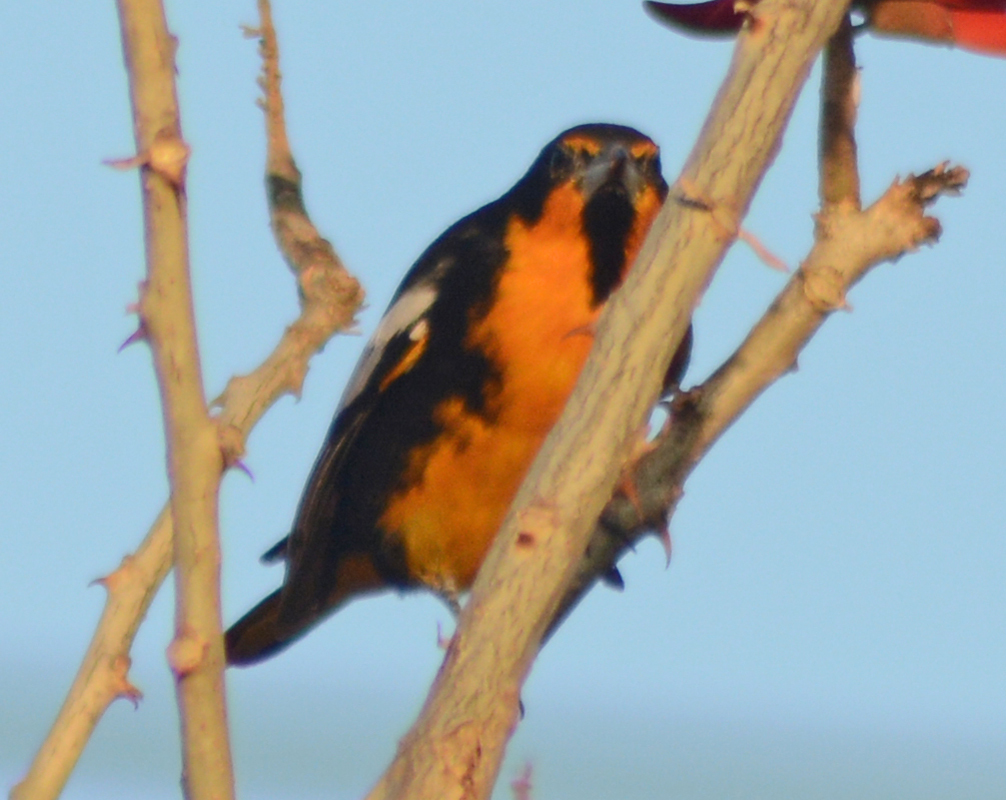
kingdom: Animalia
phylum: Chordata
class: Aves
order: Passeriformes
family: Icteridae
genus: Icterus
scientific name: Icterus abeillei
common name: Black-backed oriole
